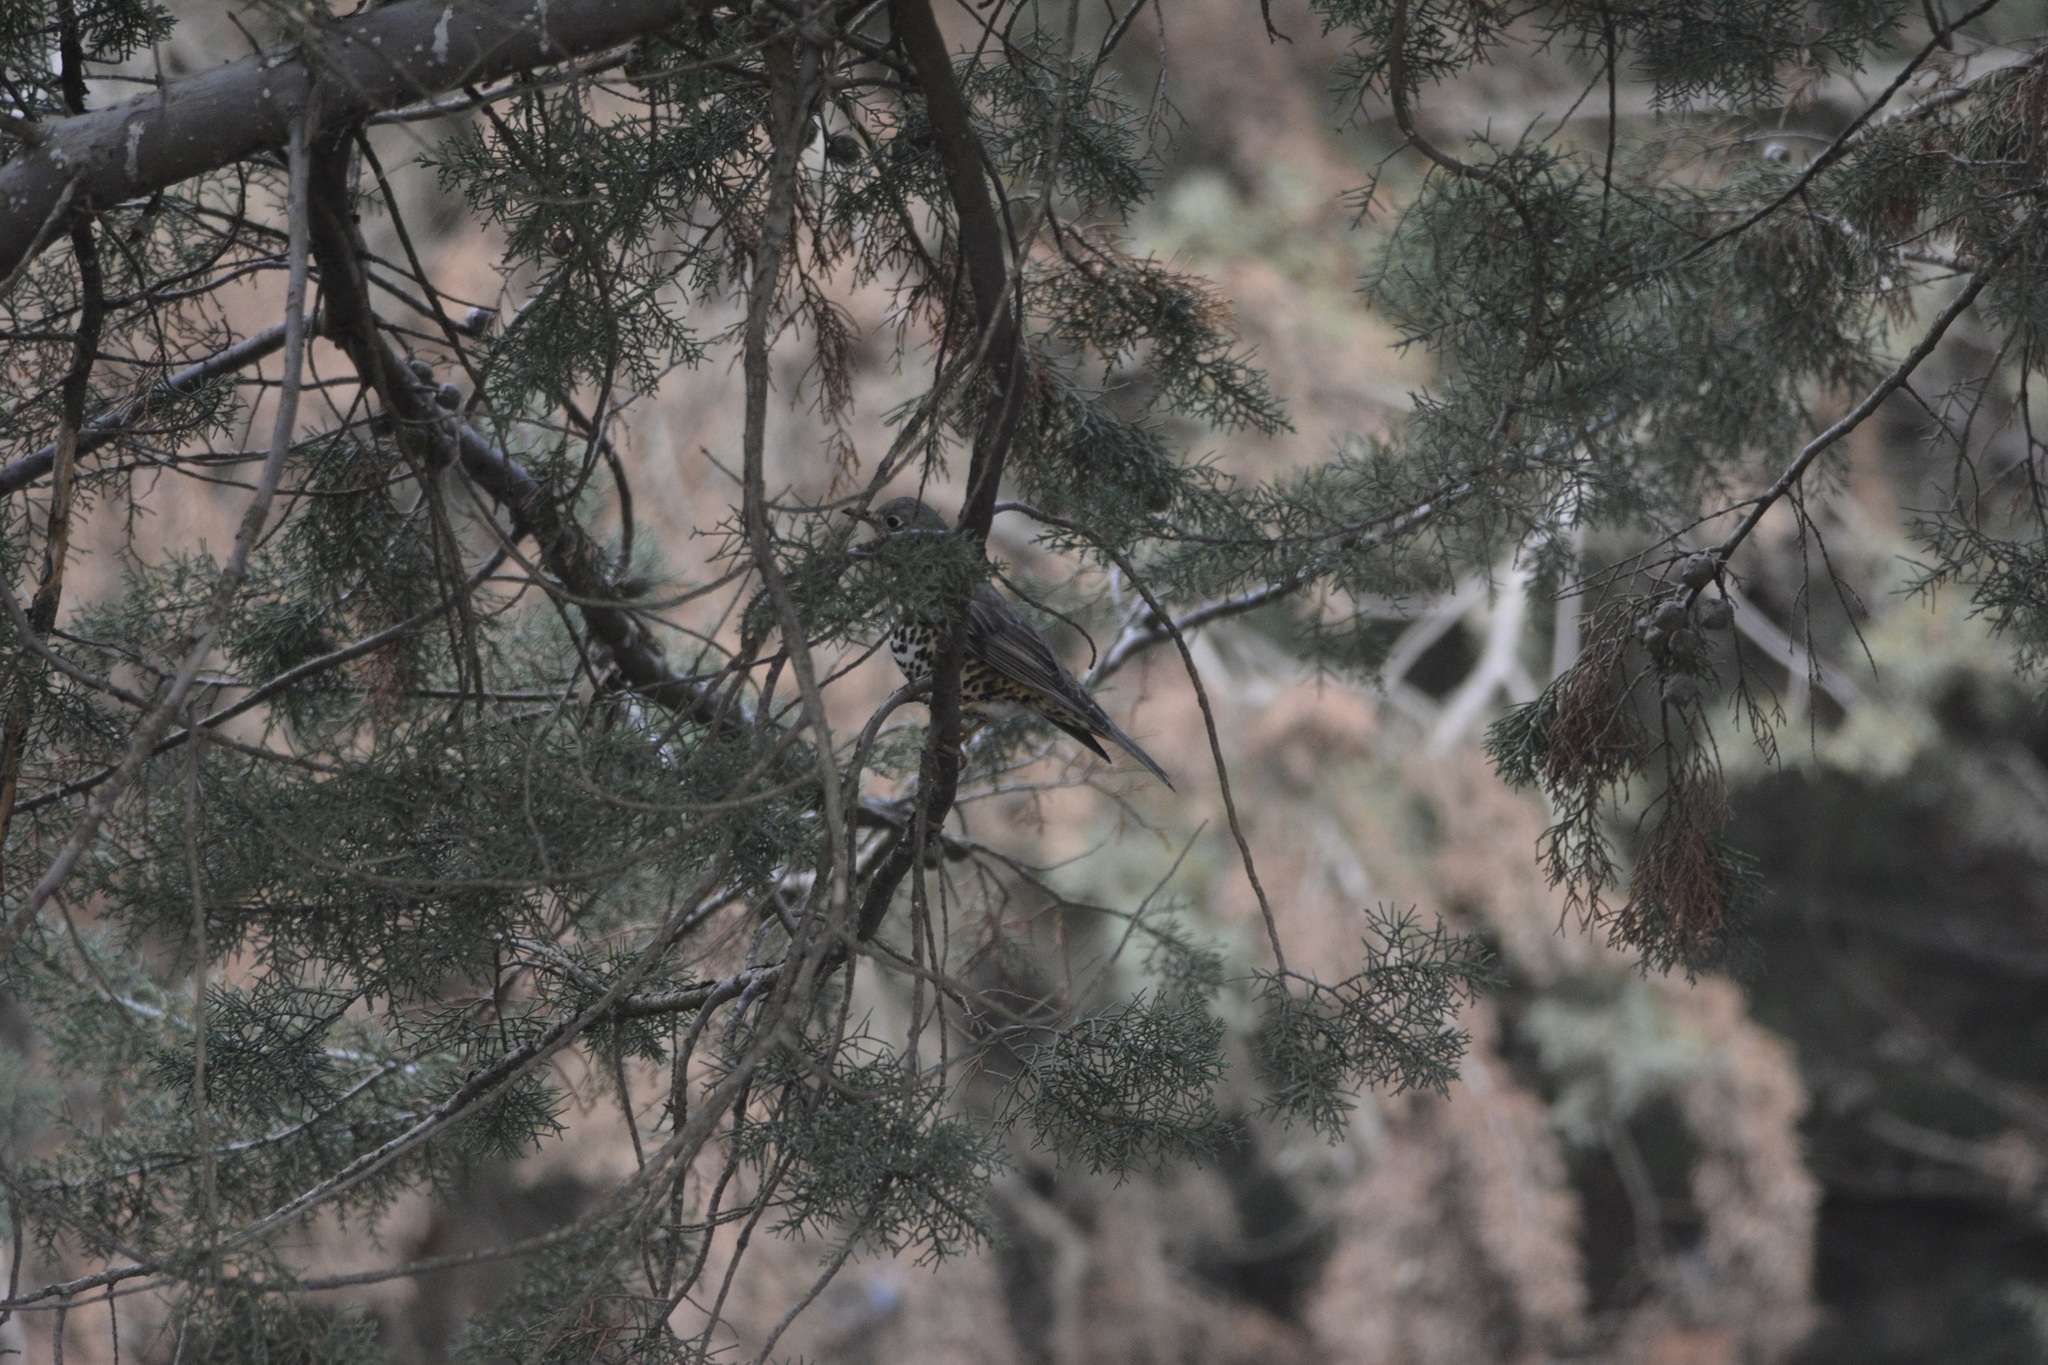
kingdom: Animalia
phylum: Chordata
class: Aves
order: Passeriformes
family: Turdidae
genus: Turdus
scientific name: Turdus viscivorus
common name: Mistle thrush
